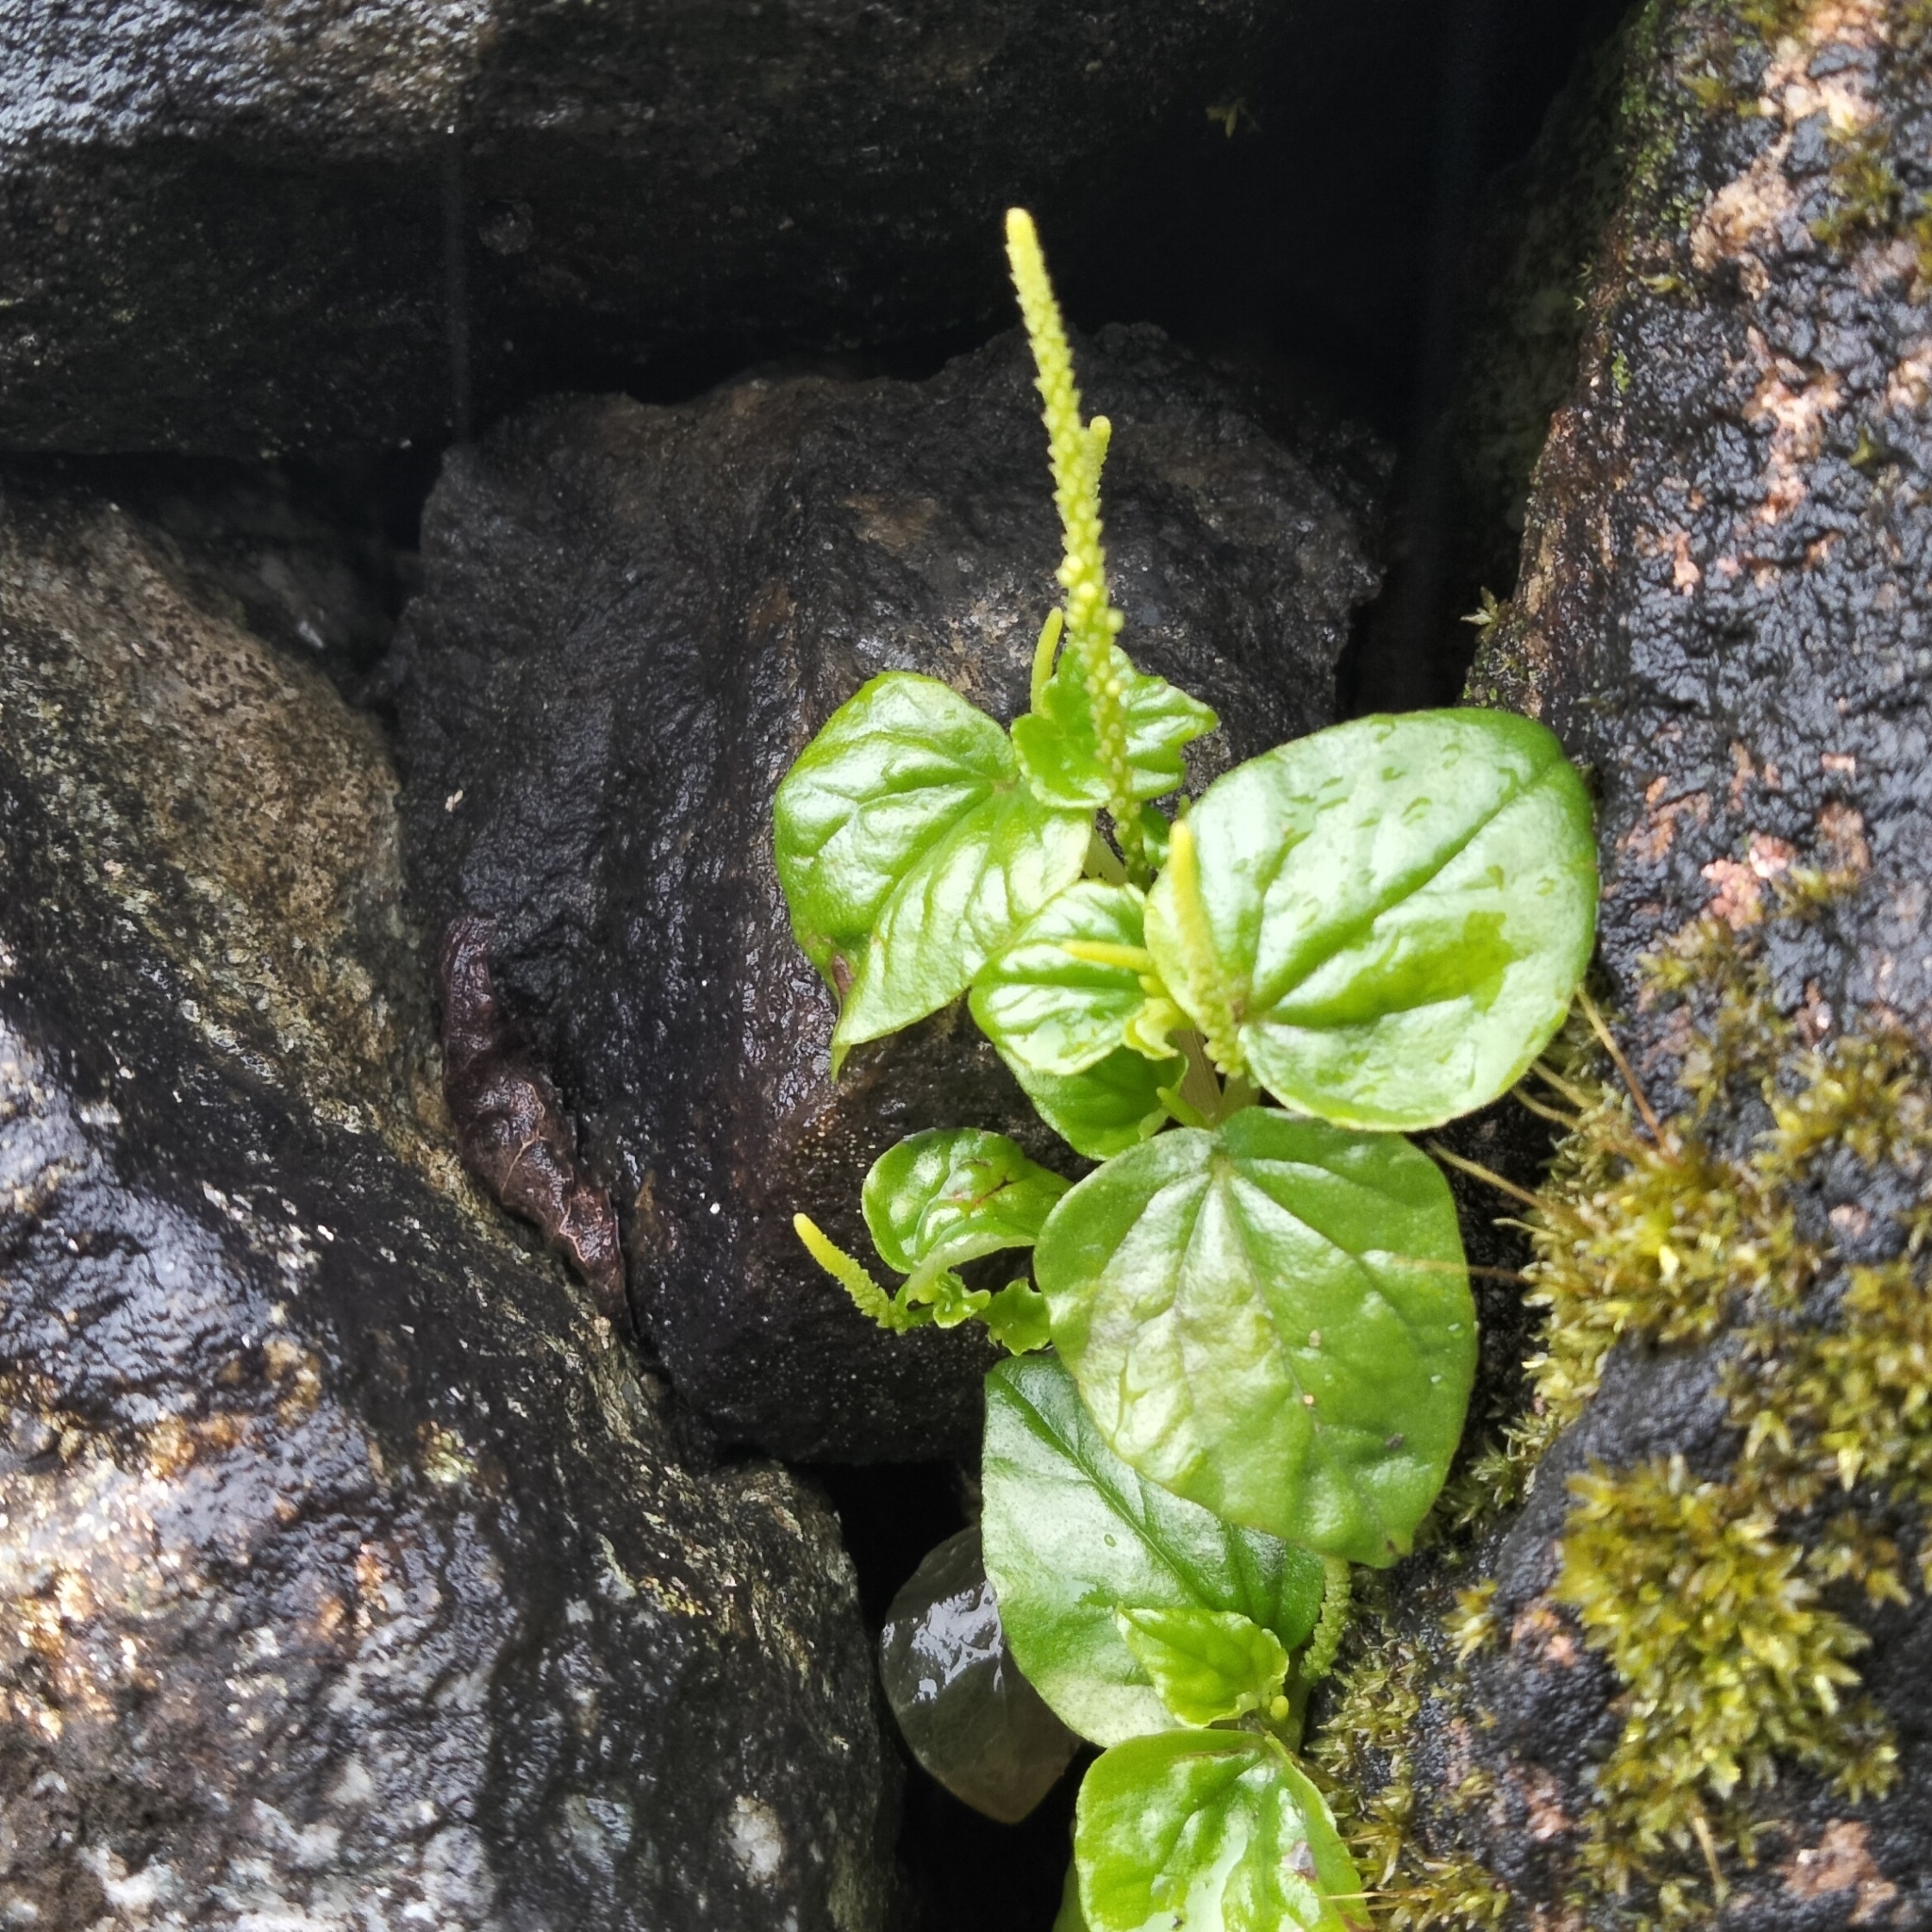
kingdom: Plantae
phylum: Tracheophyta
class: Magnoliopsida
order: Piperales
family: Piperaceae
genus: Peperomia
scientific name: Peperomia pellucida
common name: Man to man
